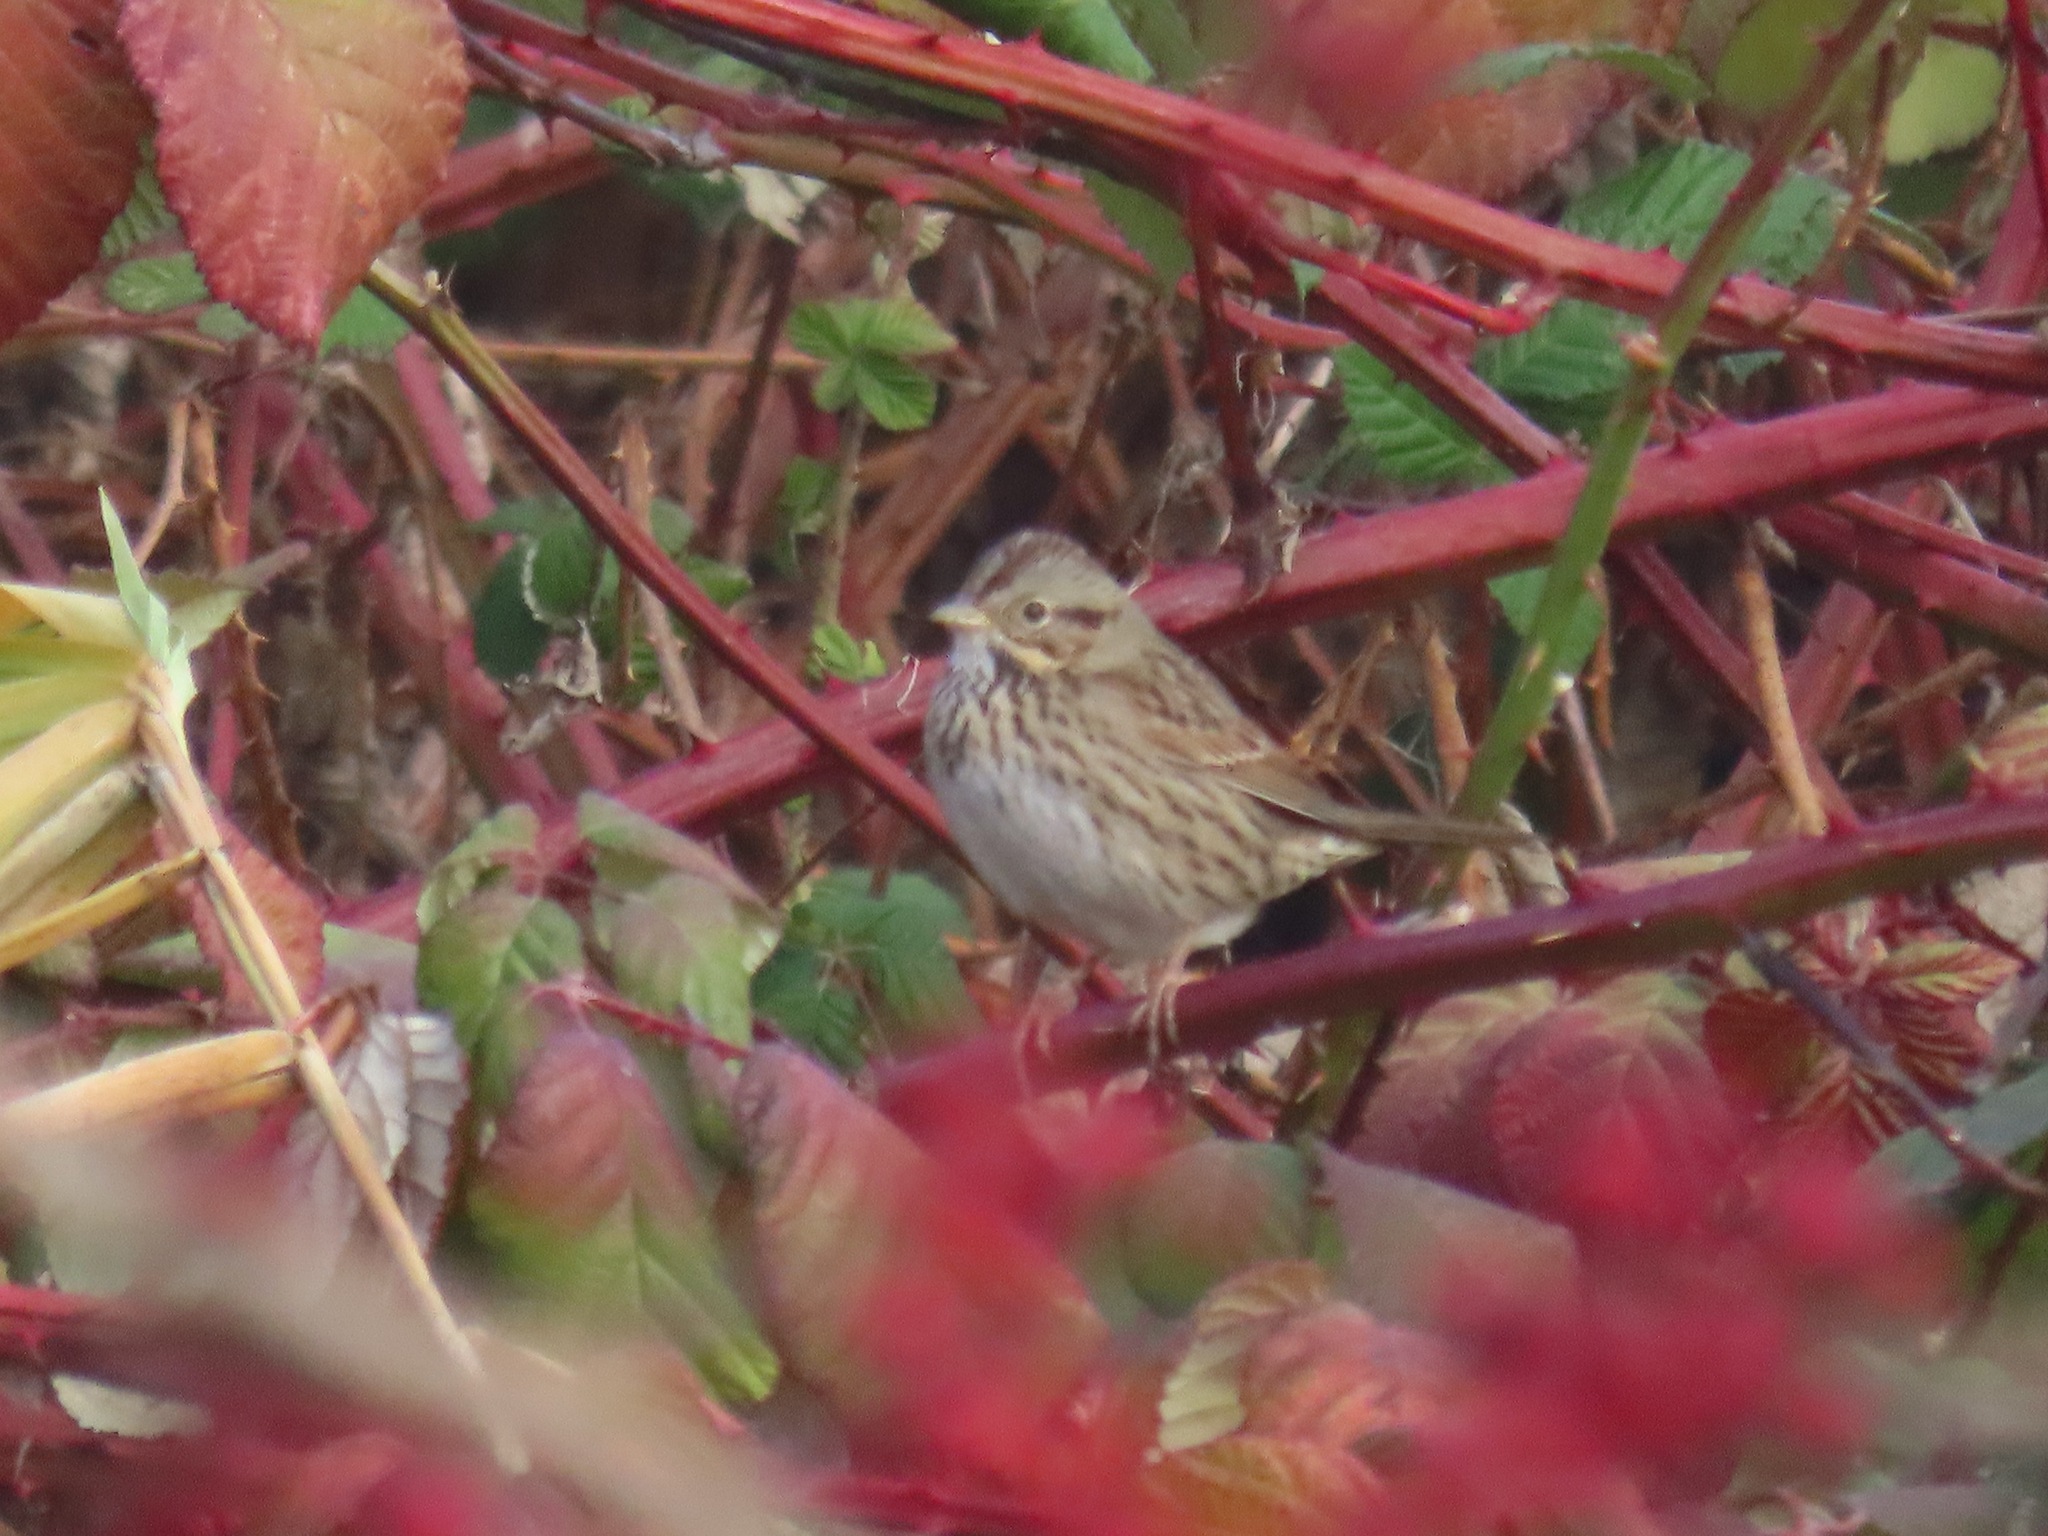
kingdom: Animalia
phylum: Chordata
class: Aves
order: Passeriformes
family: Passerellidae
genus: Melospiza
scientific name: Melospiza lincolnii
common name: Lincoln's sparrow
